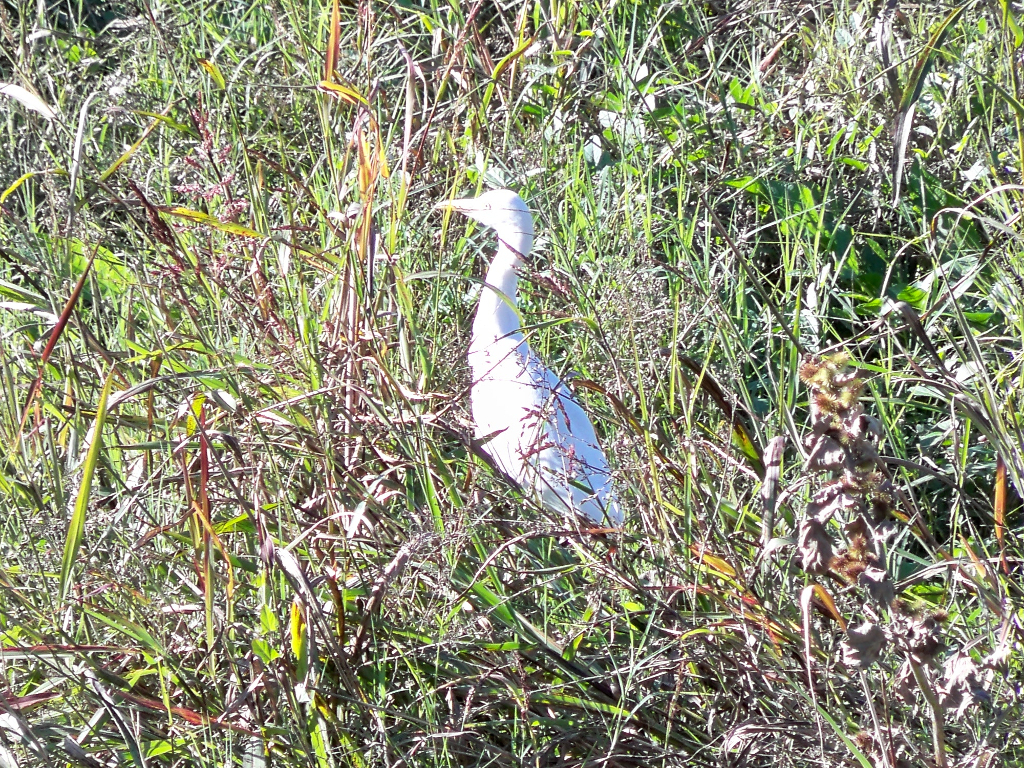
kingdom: Animalia
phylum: Chordata
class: Aves
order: Pelecaniformes
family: Ardeidae
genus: Bubulcus
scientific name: Bubulcus ibis
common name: Cattle egret
